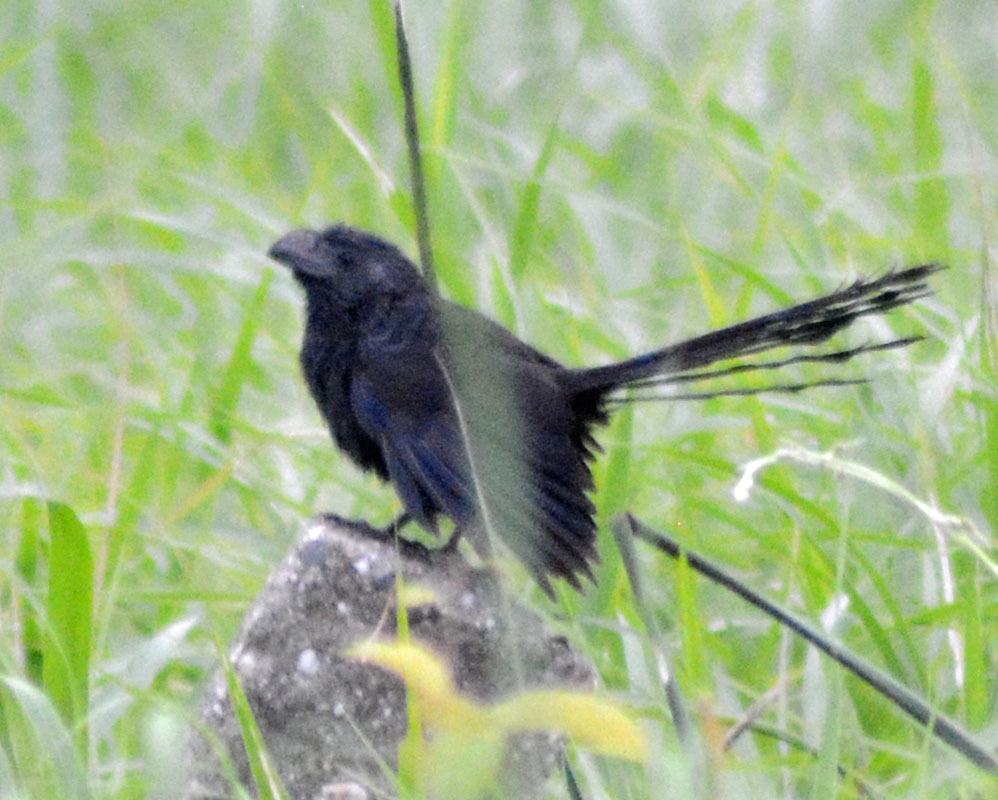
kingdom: Animalia
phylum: Chordata
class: Aves
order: Cuculiformes
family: Cuculidae
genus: Crotophaga
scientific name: Crotophaga sulcirostris
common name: Groove-billed ani
